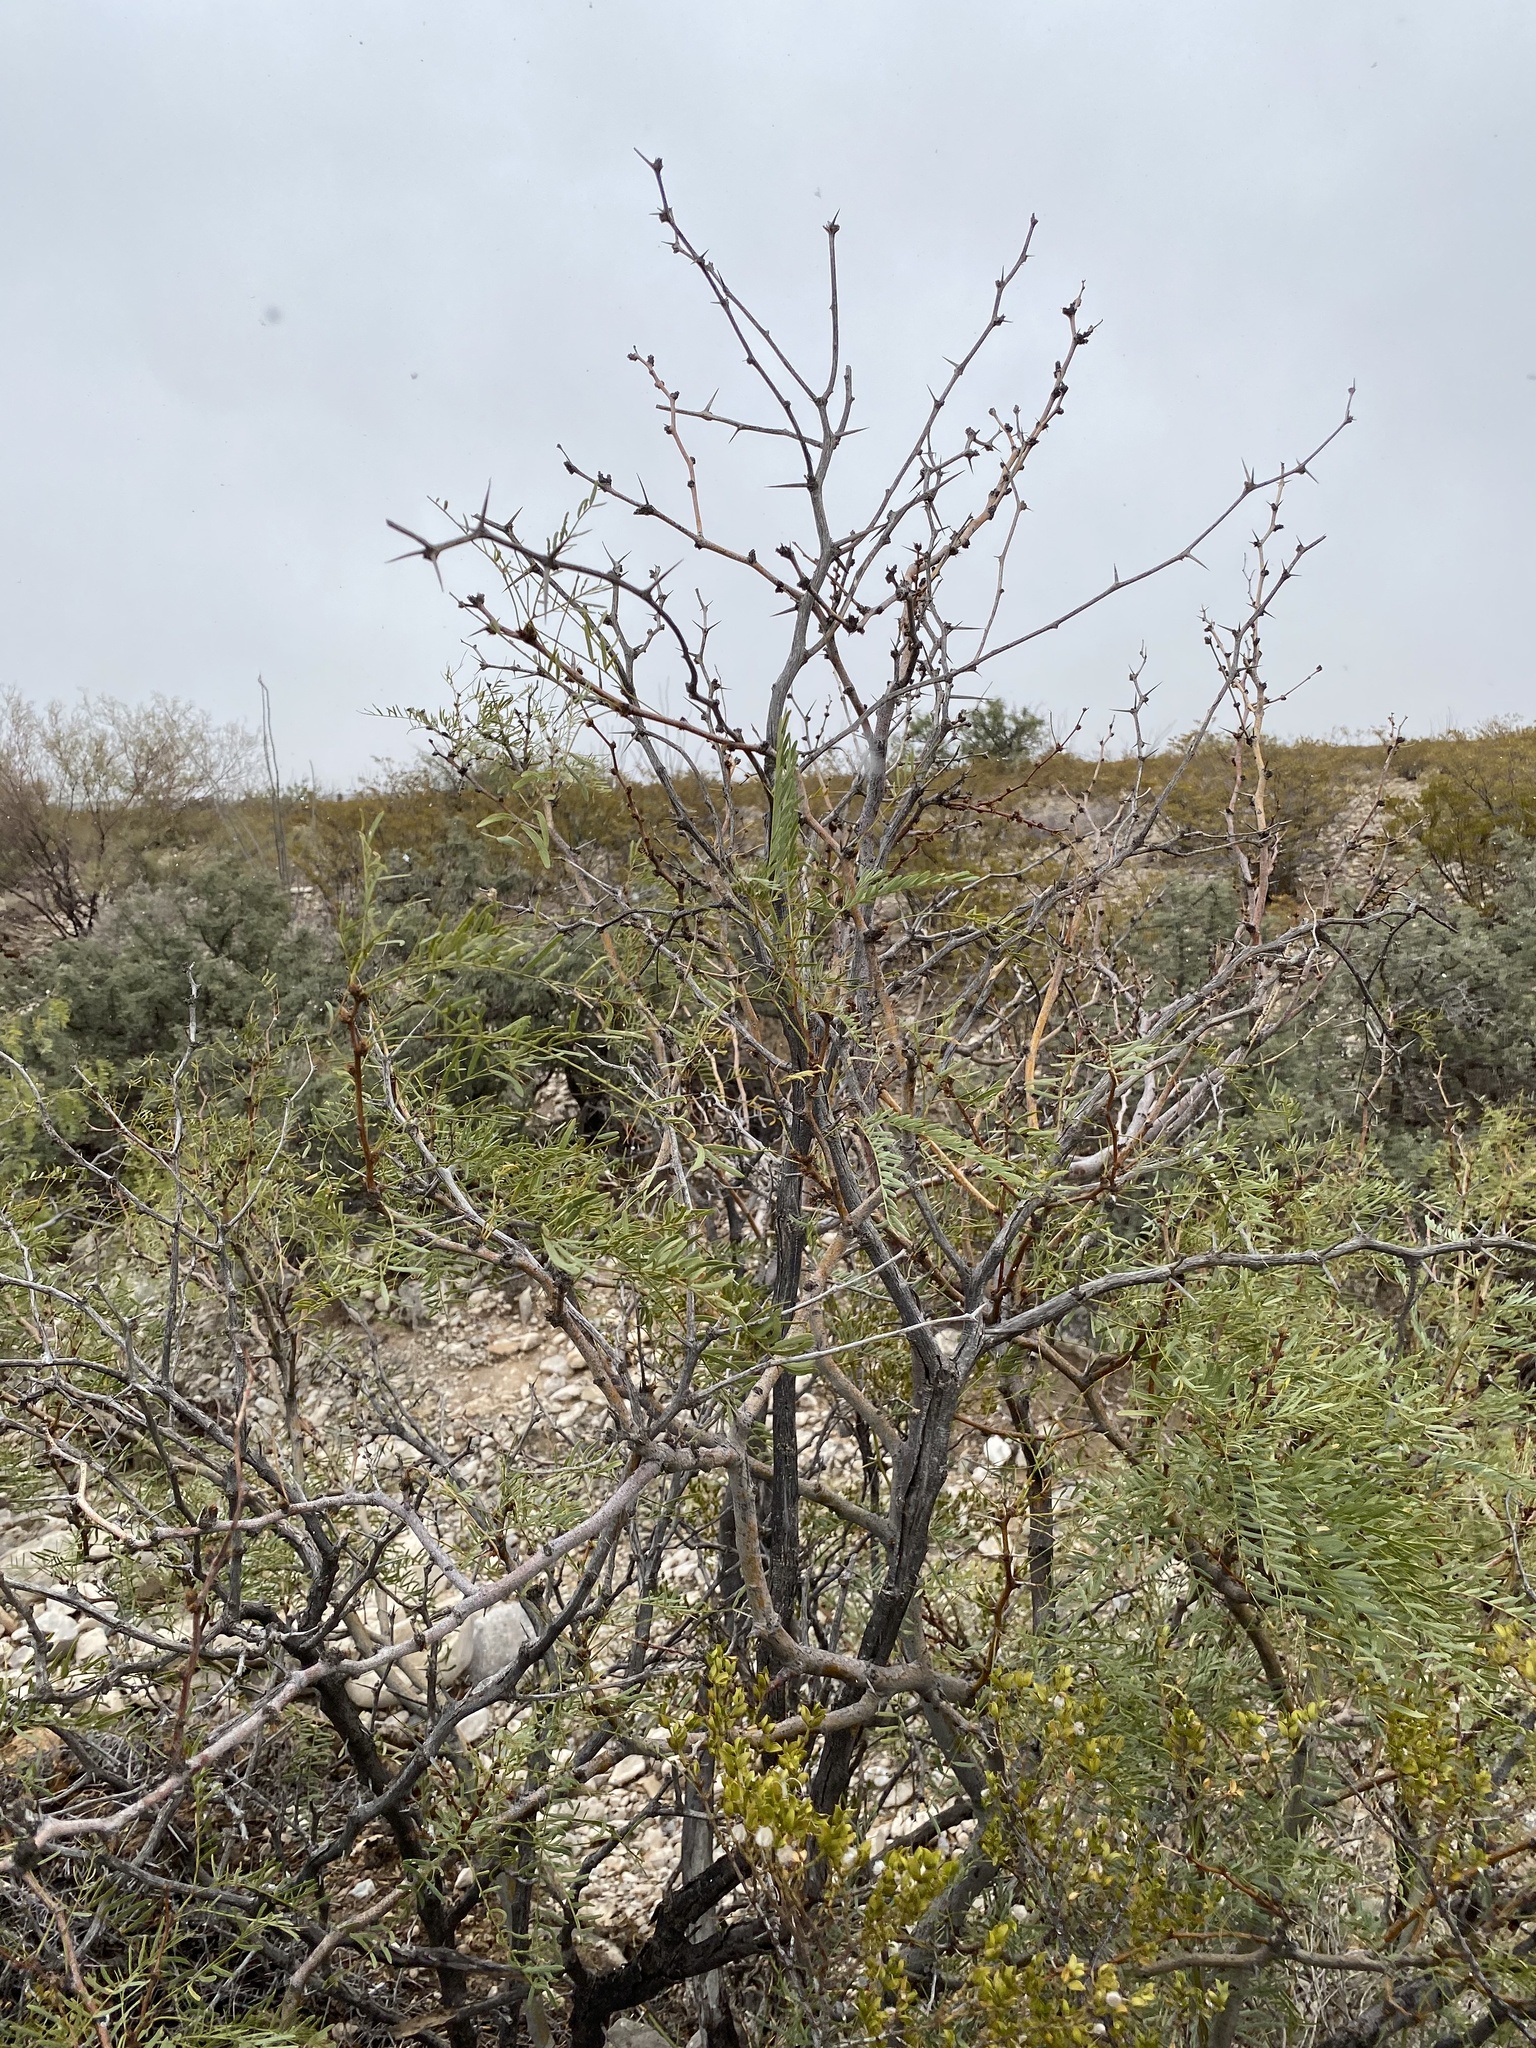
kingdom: Plantae
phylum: Tracheophyta
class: Magnoliopsida
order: Fabales
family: Fabaceae
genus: Prosopis
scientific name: Prosopis glandulosa
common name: Honey mesquite
